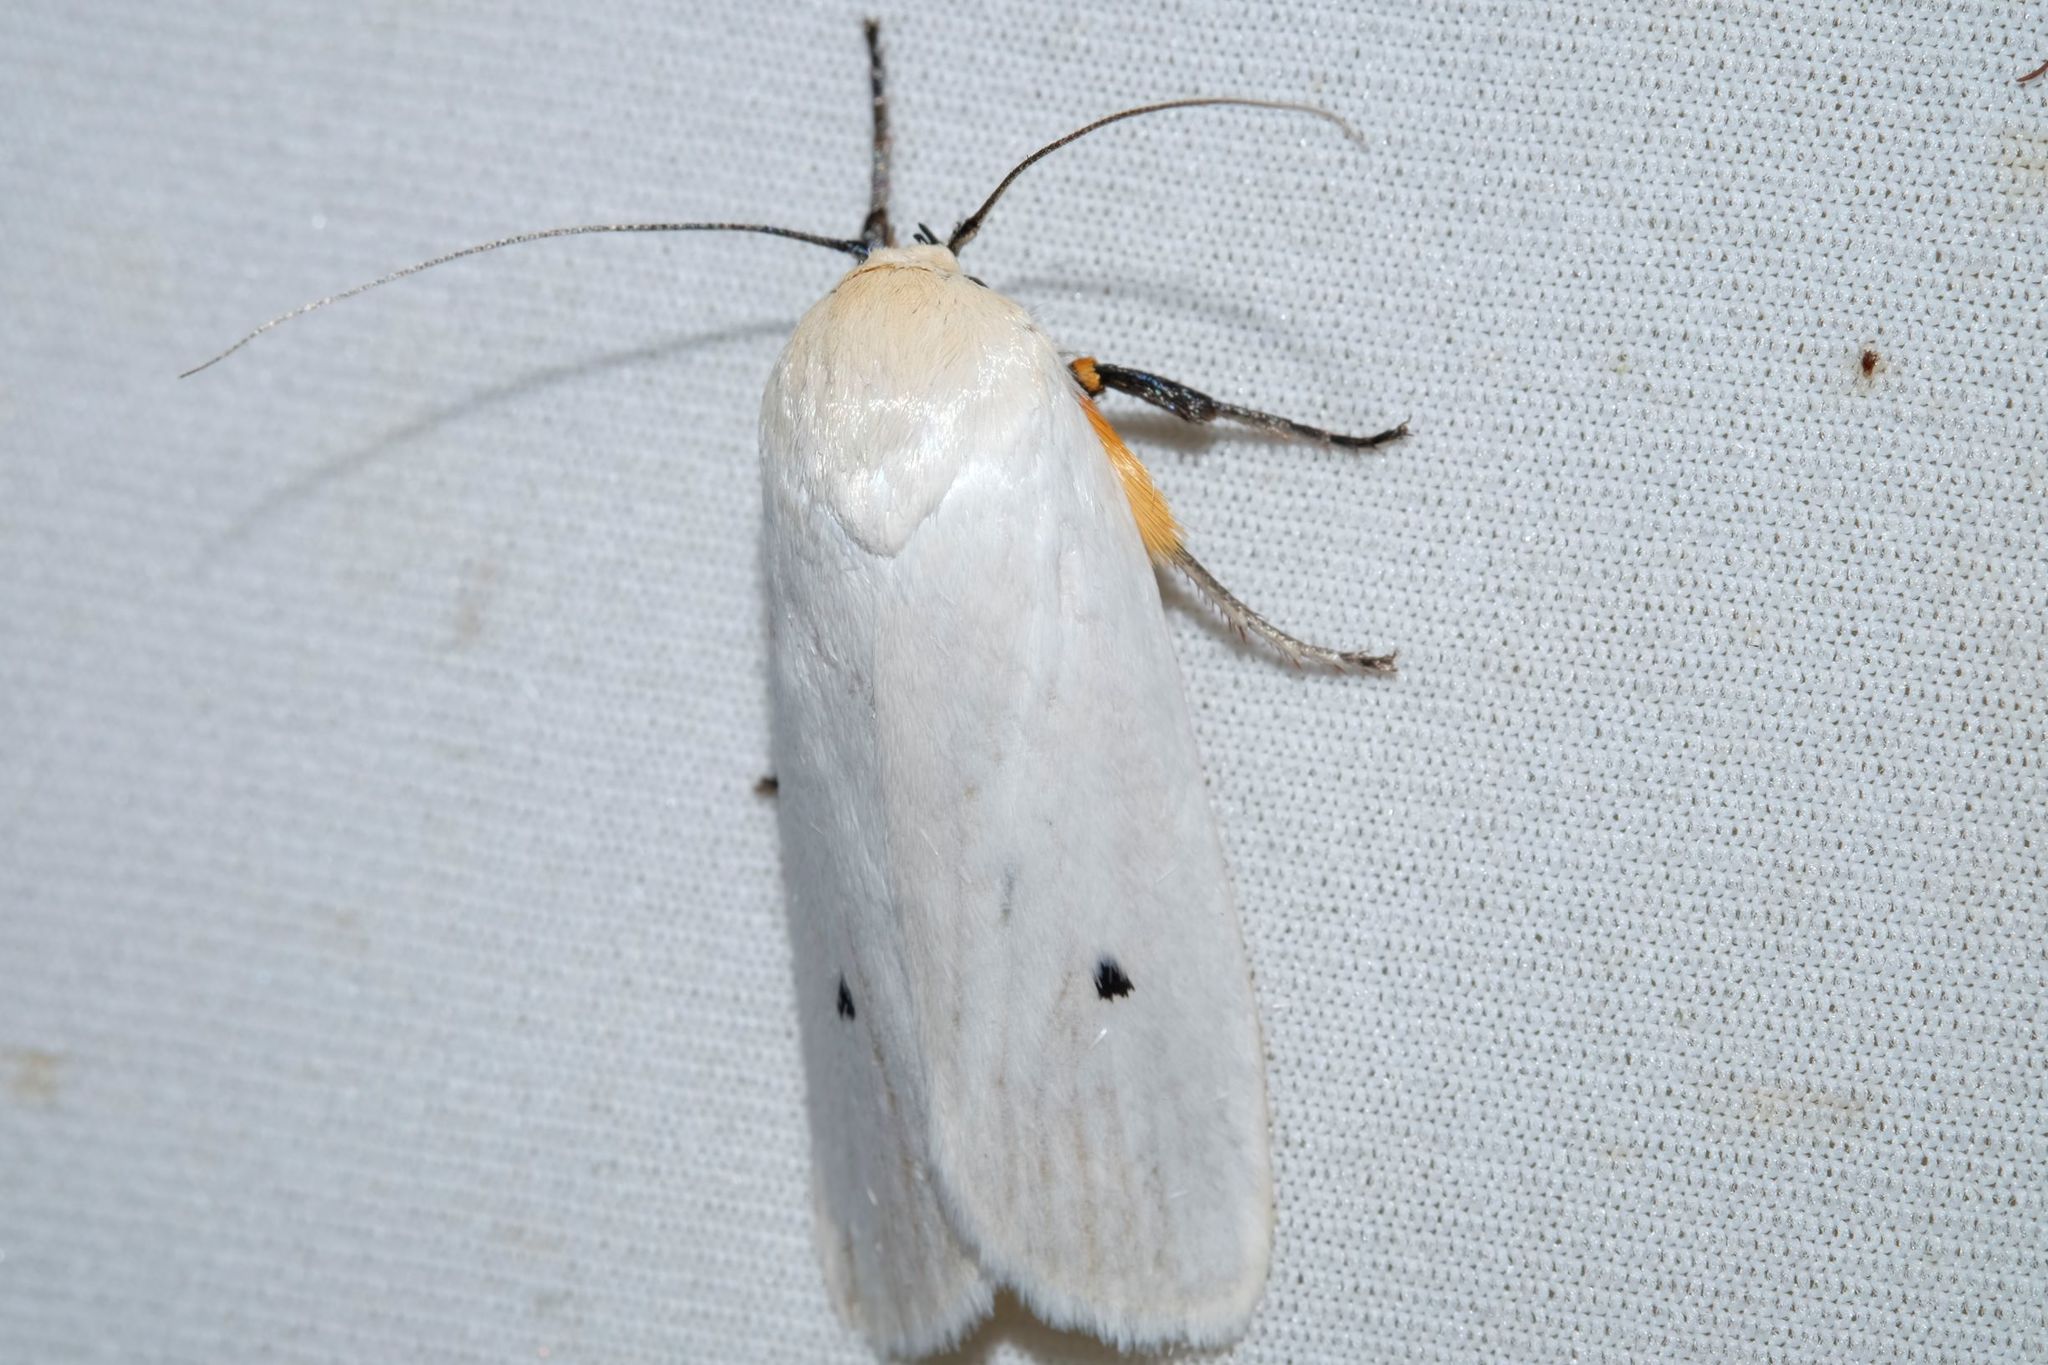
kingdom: Animalia
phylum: Arthropoda
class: Insecta
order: Lepidoptera
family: Xyloryctidae
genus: Maroga
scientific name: Maroga melanostigma
